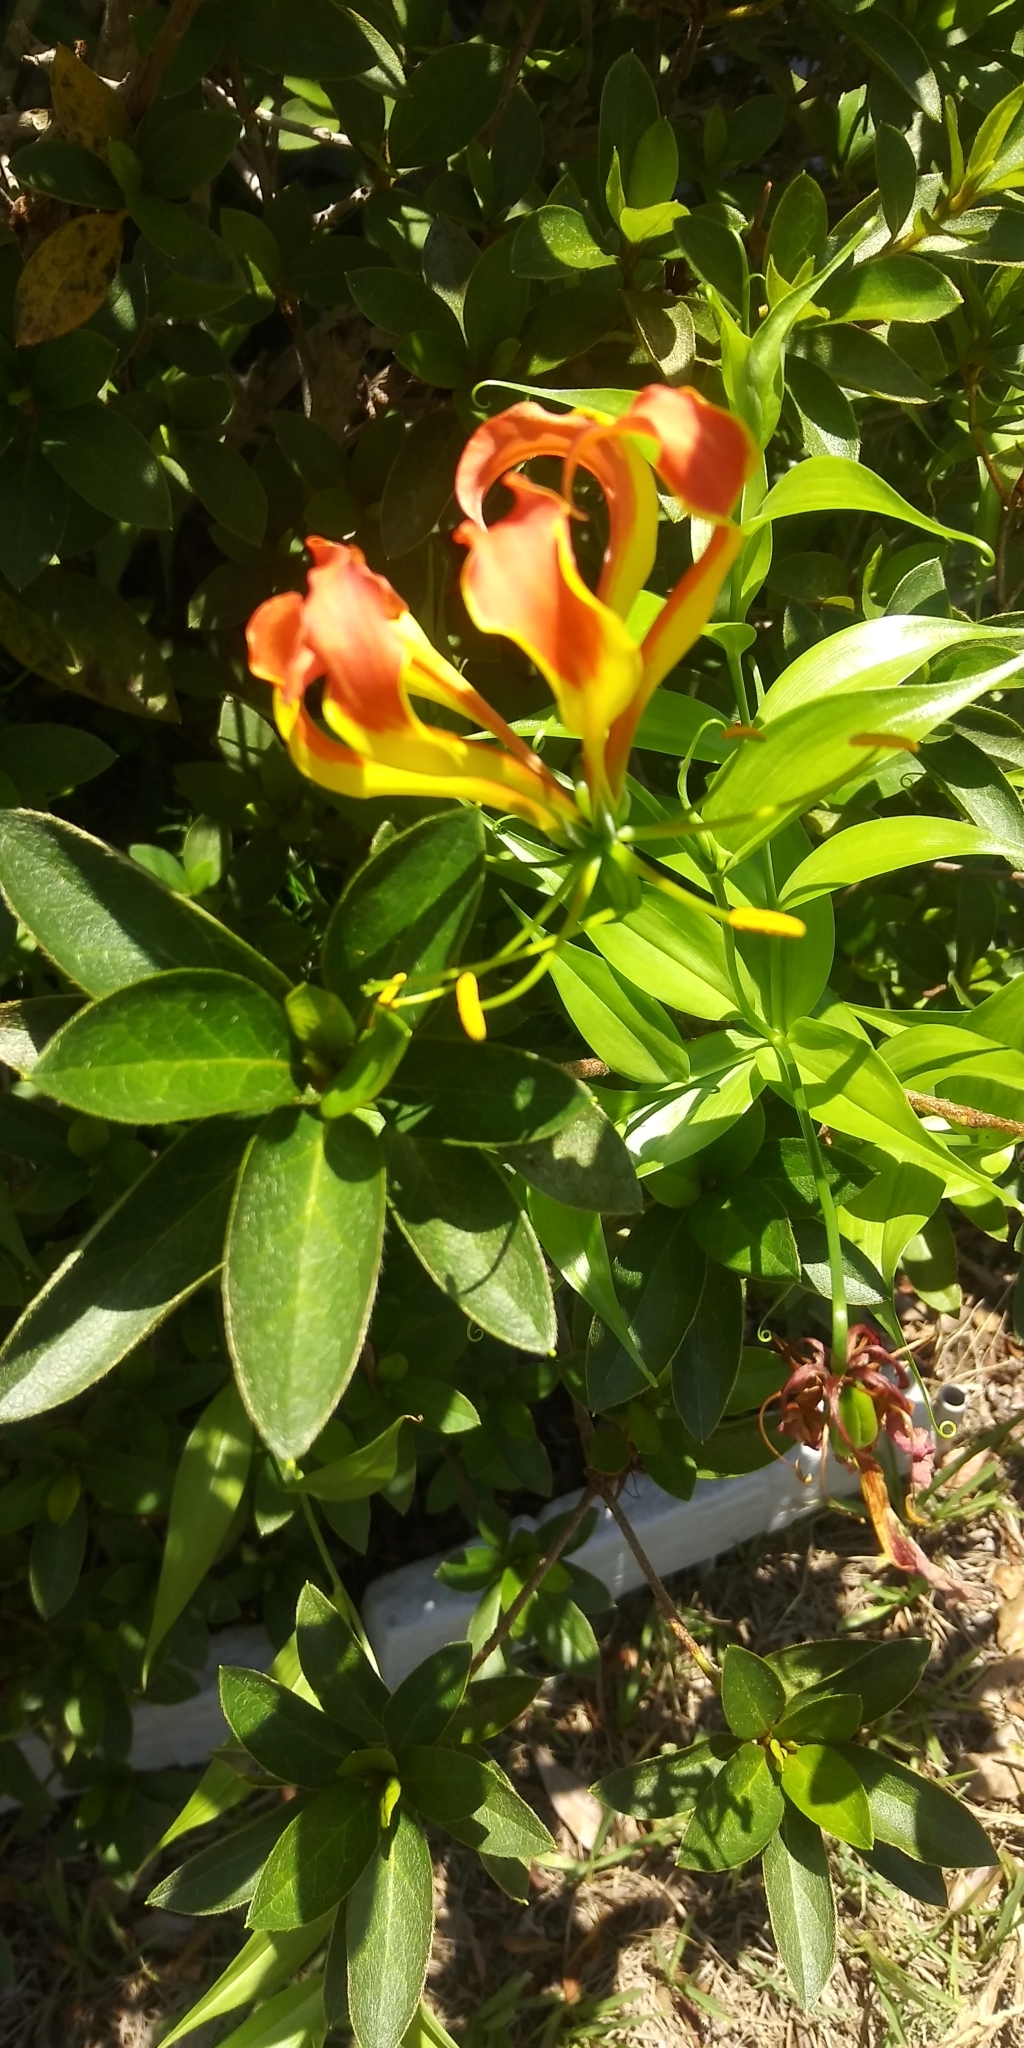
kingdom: Plantae
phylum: Tracheophyta
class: Liliopsida
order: Liliales
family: Colchicaceae
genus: Gloriosa
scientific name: Gloriosa superba
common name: Flame lily
